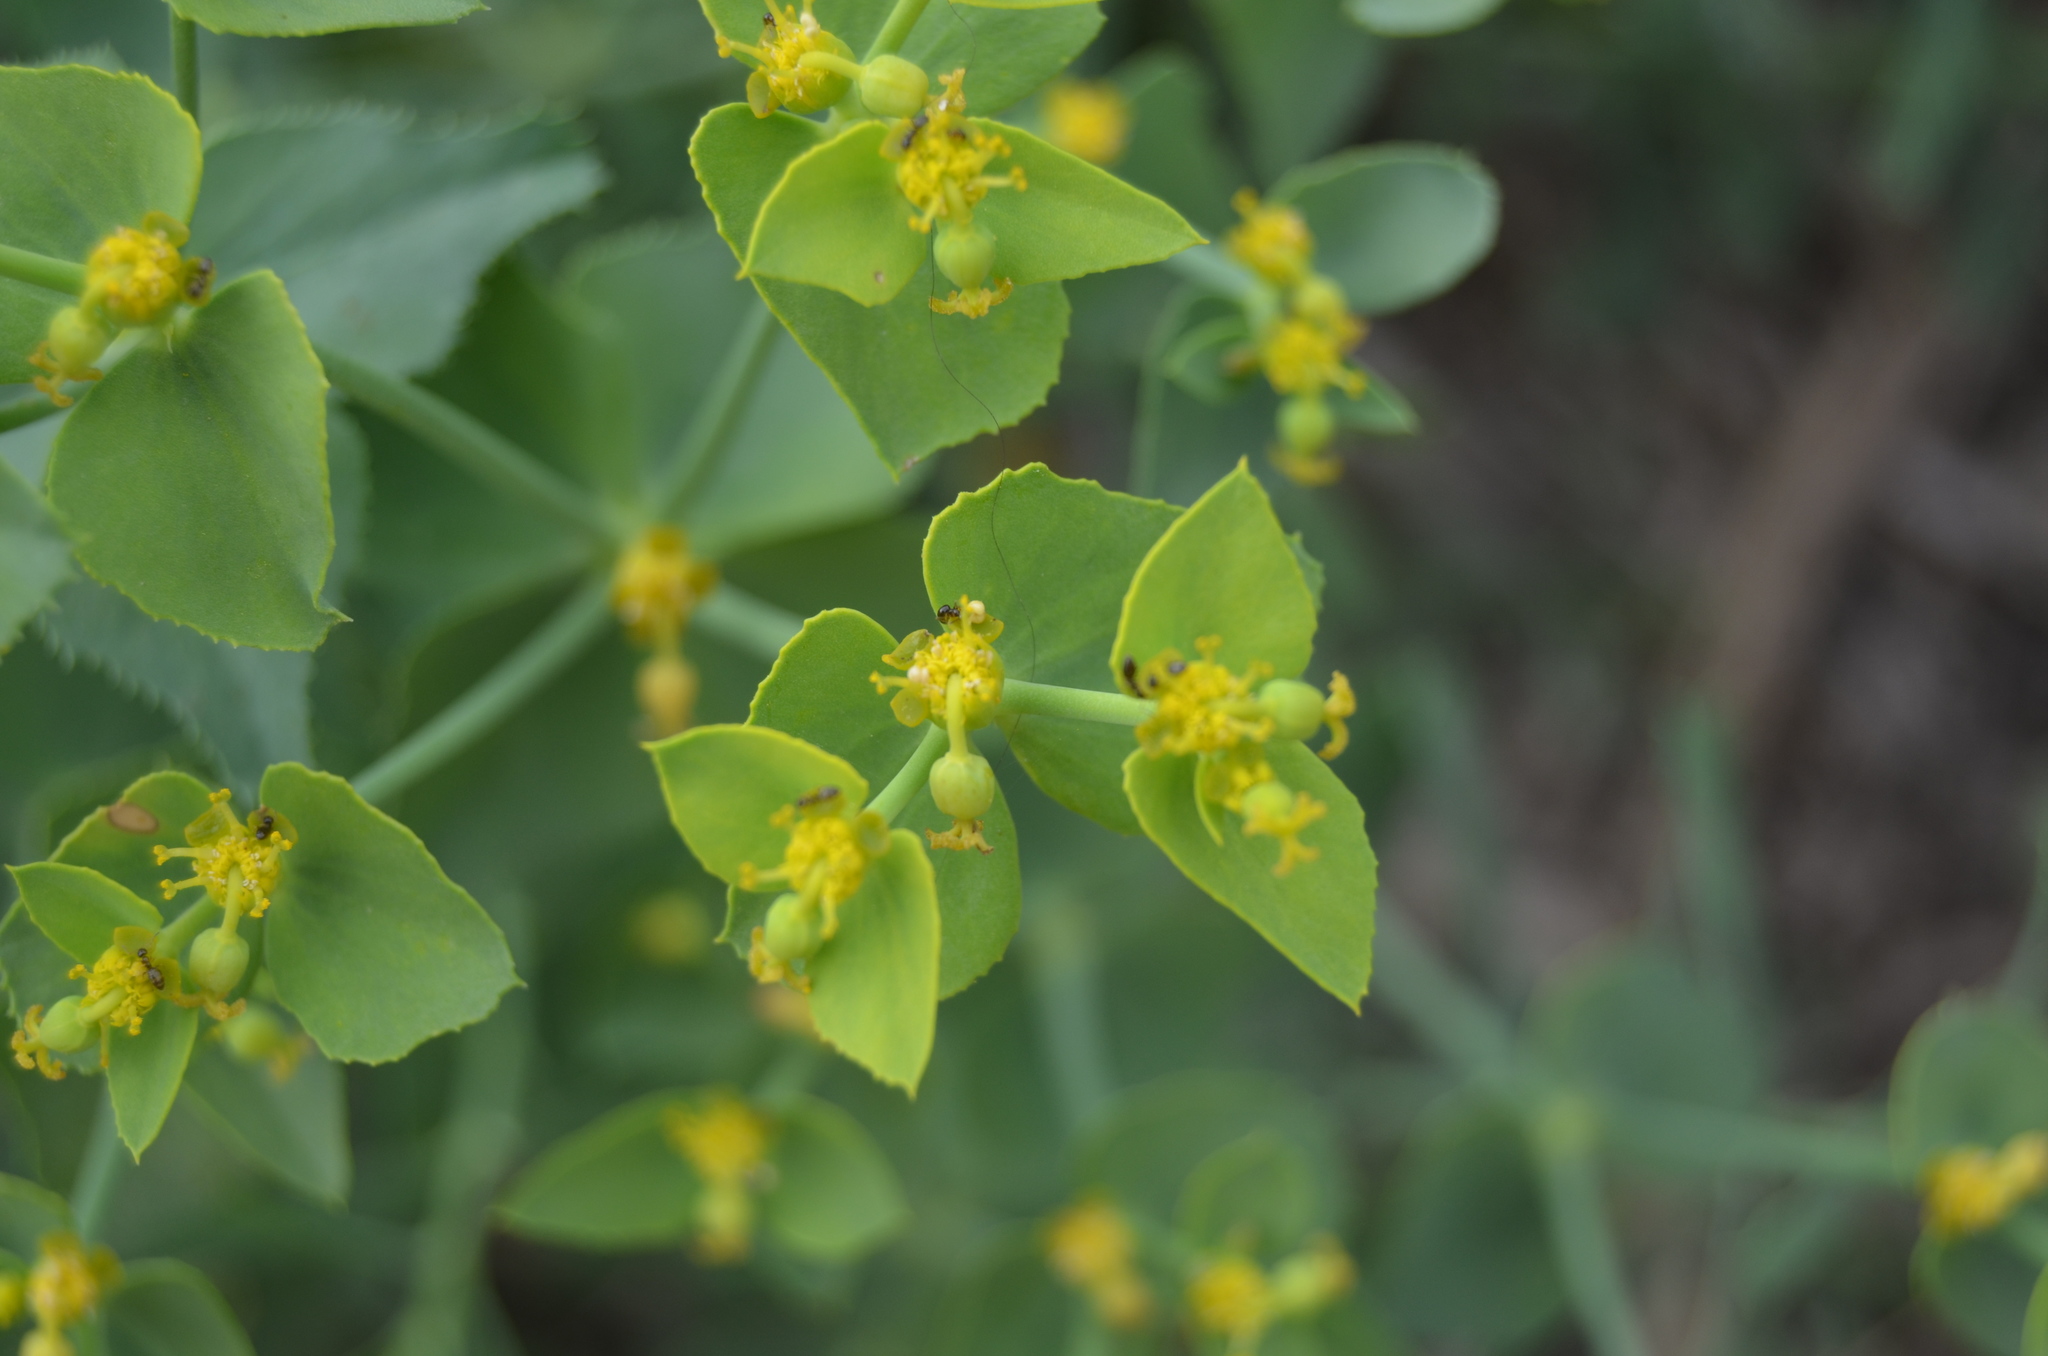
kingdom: Plantae
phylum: Tracheophyta
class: Magnoliopsida
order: Malpighiales
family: Euphorbiaceae
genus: Euphorbia
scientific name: Euphorbia serrata
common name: Serrate spurge
